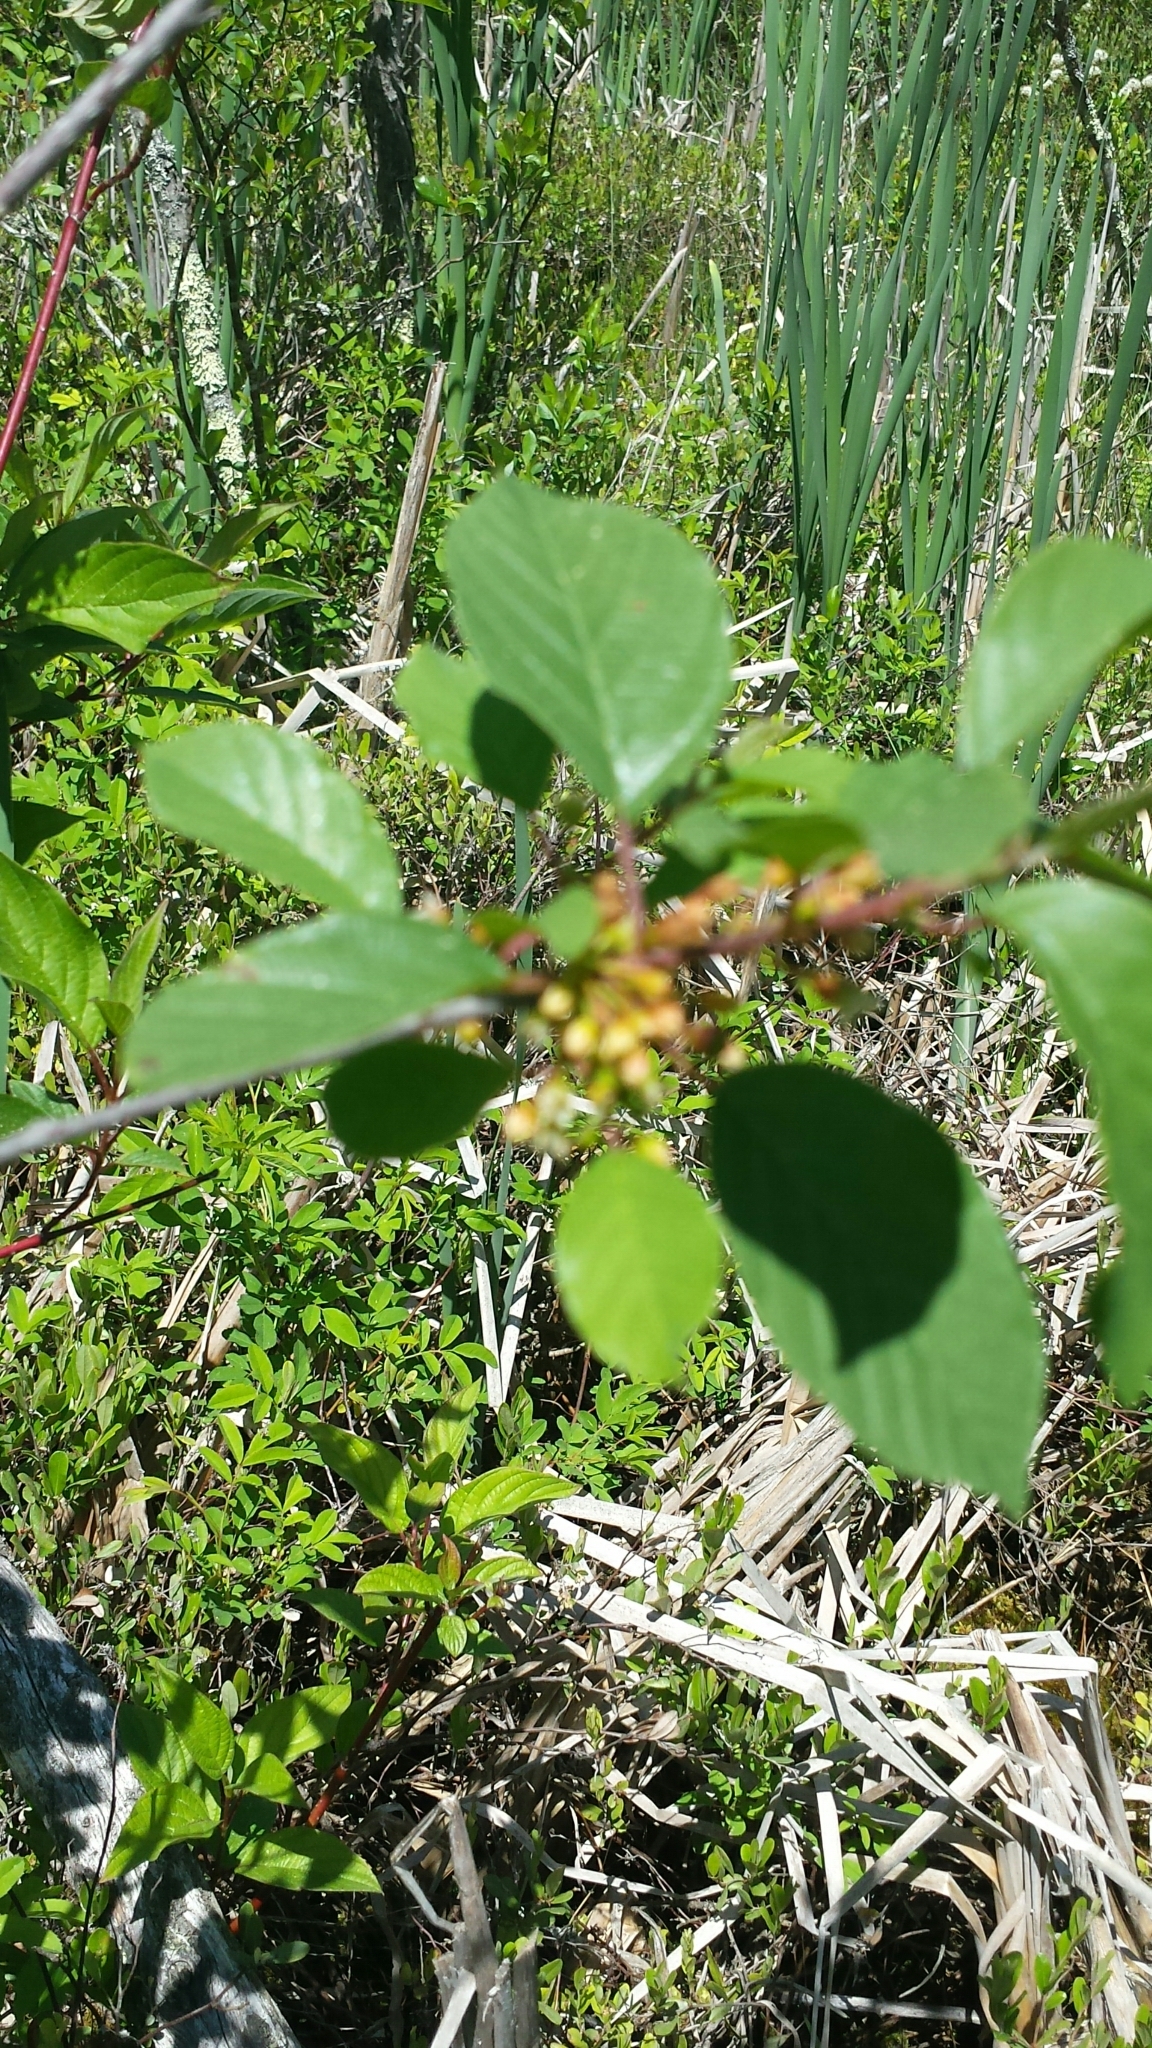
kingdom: Plantae
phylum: Tracheophyta
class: Magnoliopsida
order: Rosales
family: Rhamnaceae
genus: Frangula
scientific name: Frangula alnus
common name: Alder buckthorn
